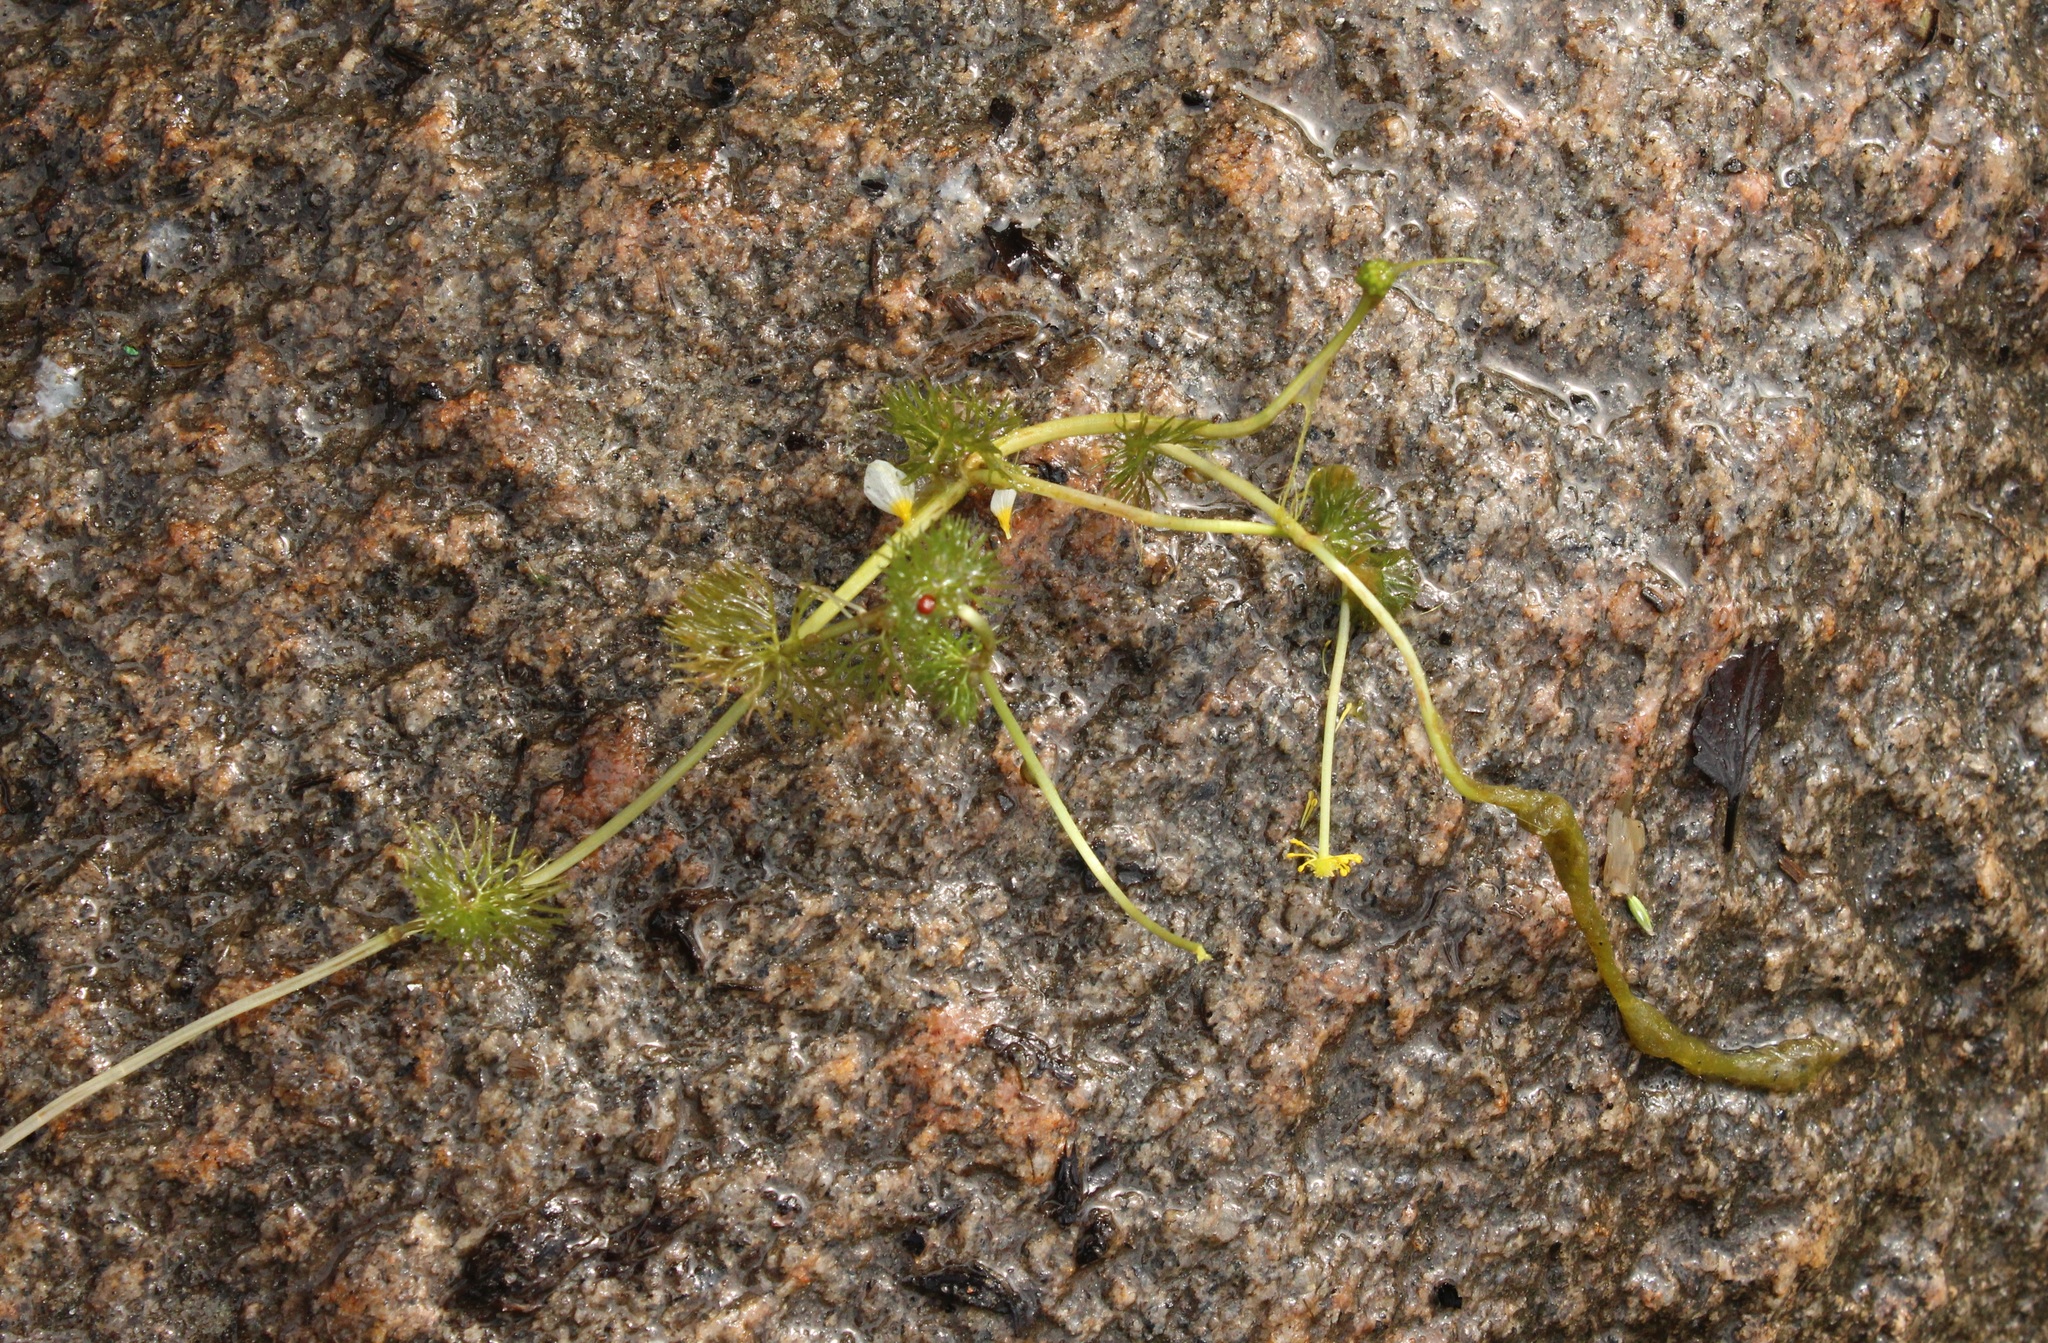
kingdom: Plantae
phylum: Tracheophyta
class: Magnoliopsida
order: Ranunculales
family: Ranunculaceae
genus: Ranunculus
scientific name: Ranunculus circinatus
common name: Fan-leaved water-crowfoot
